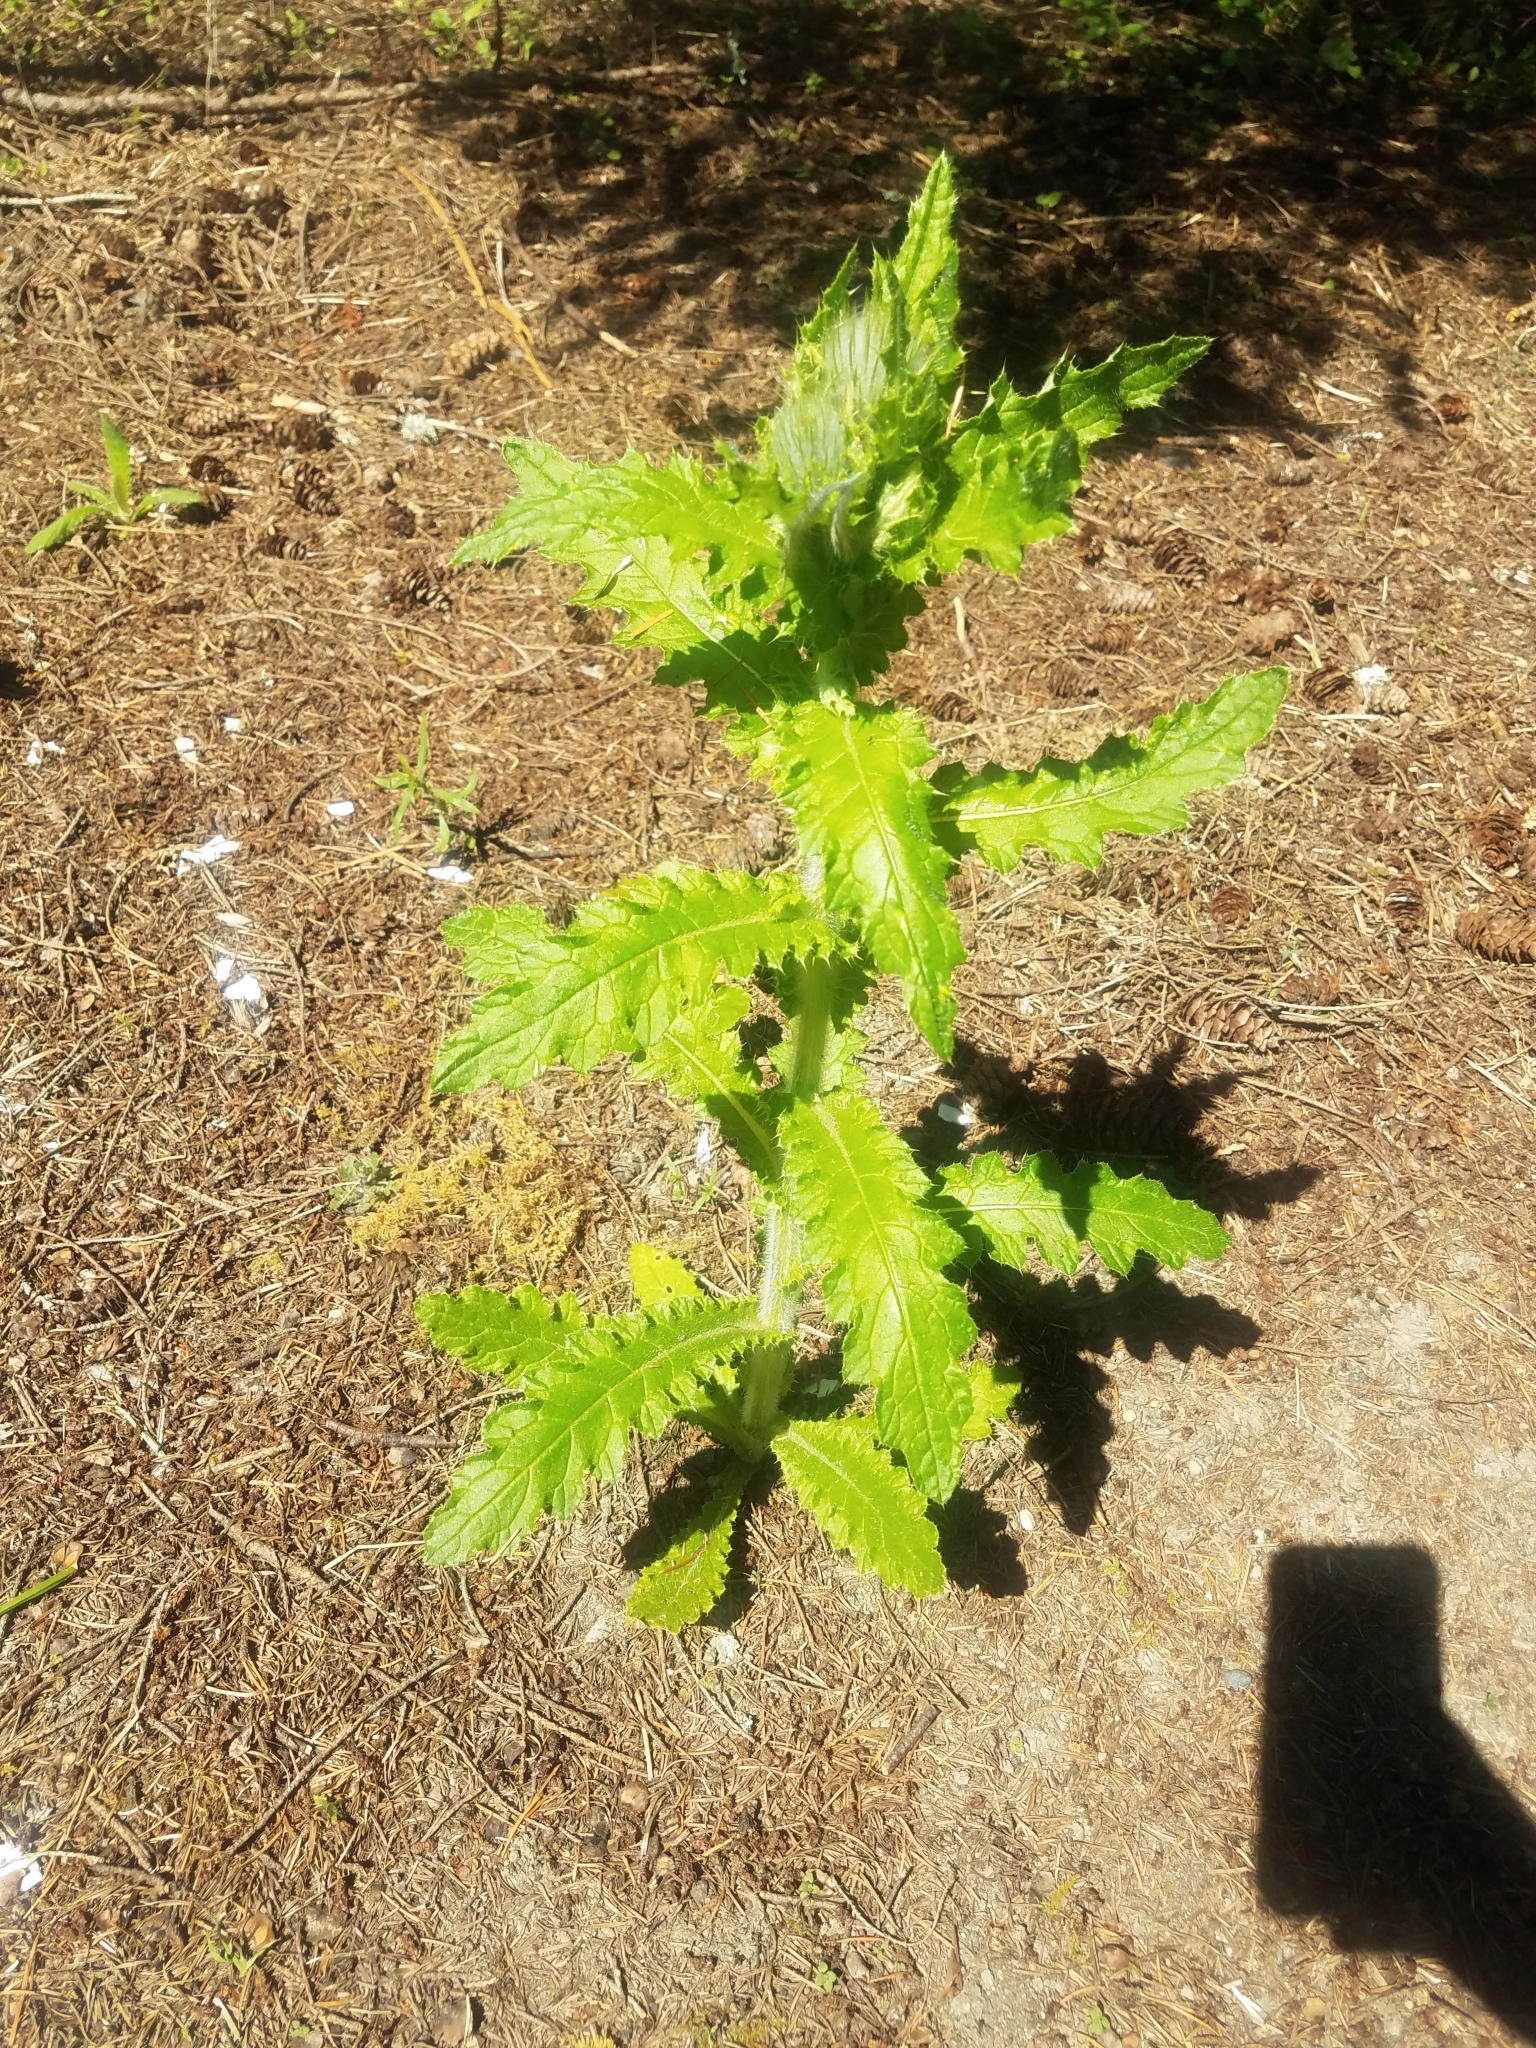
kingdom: Plantae
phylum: Tracheophyta
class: Magnoliopsida
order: Asterales
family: Asteraceae
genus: Cirsium
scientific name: Cirsium brevistylum
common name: Indian thistle
